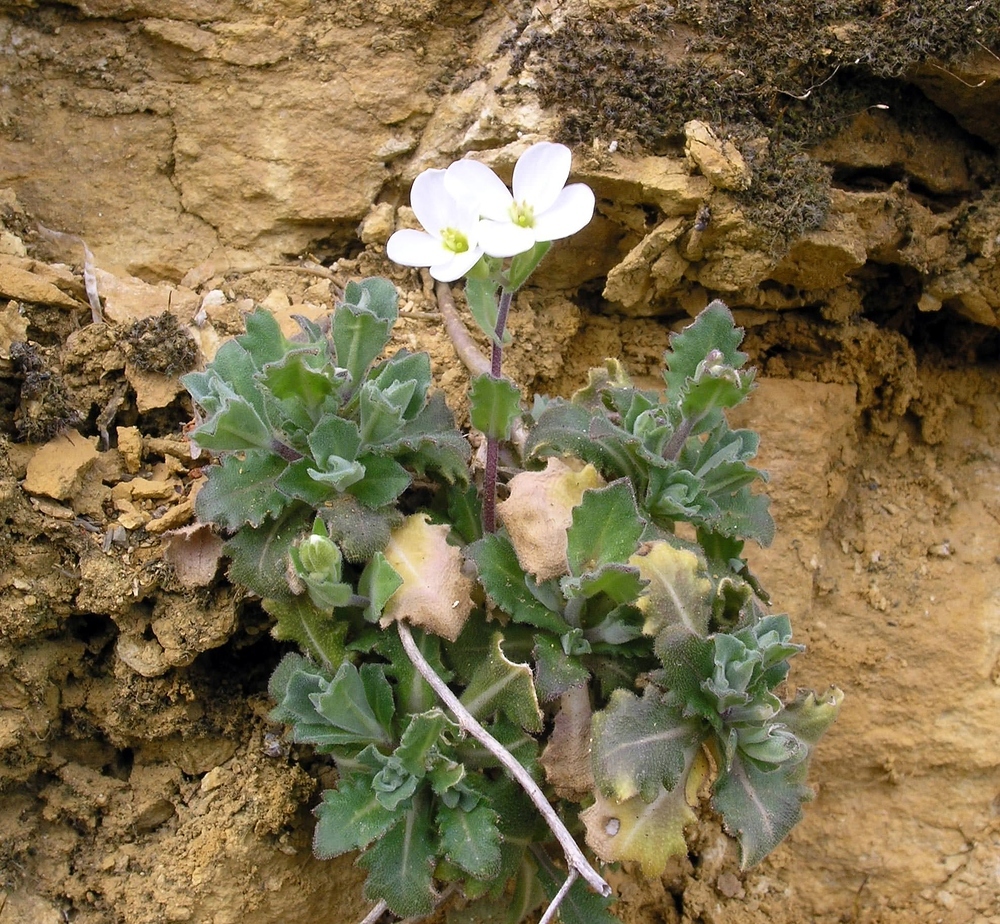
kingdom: Plantae
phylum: Tracheophyta
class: Magnoliopsida
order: Brassicales
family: Brassicaceae
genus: Arabis
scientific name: Arabis alpina
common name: Alpine rock-cress
